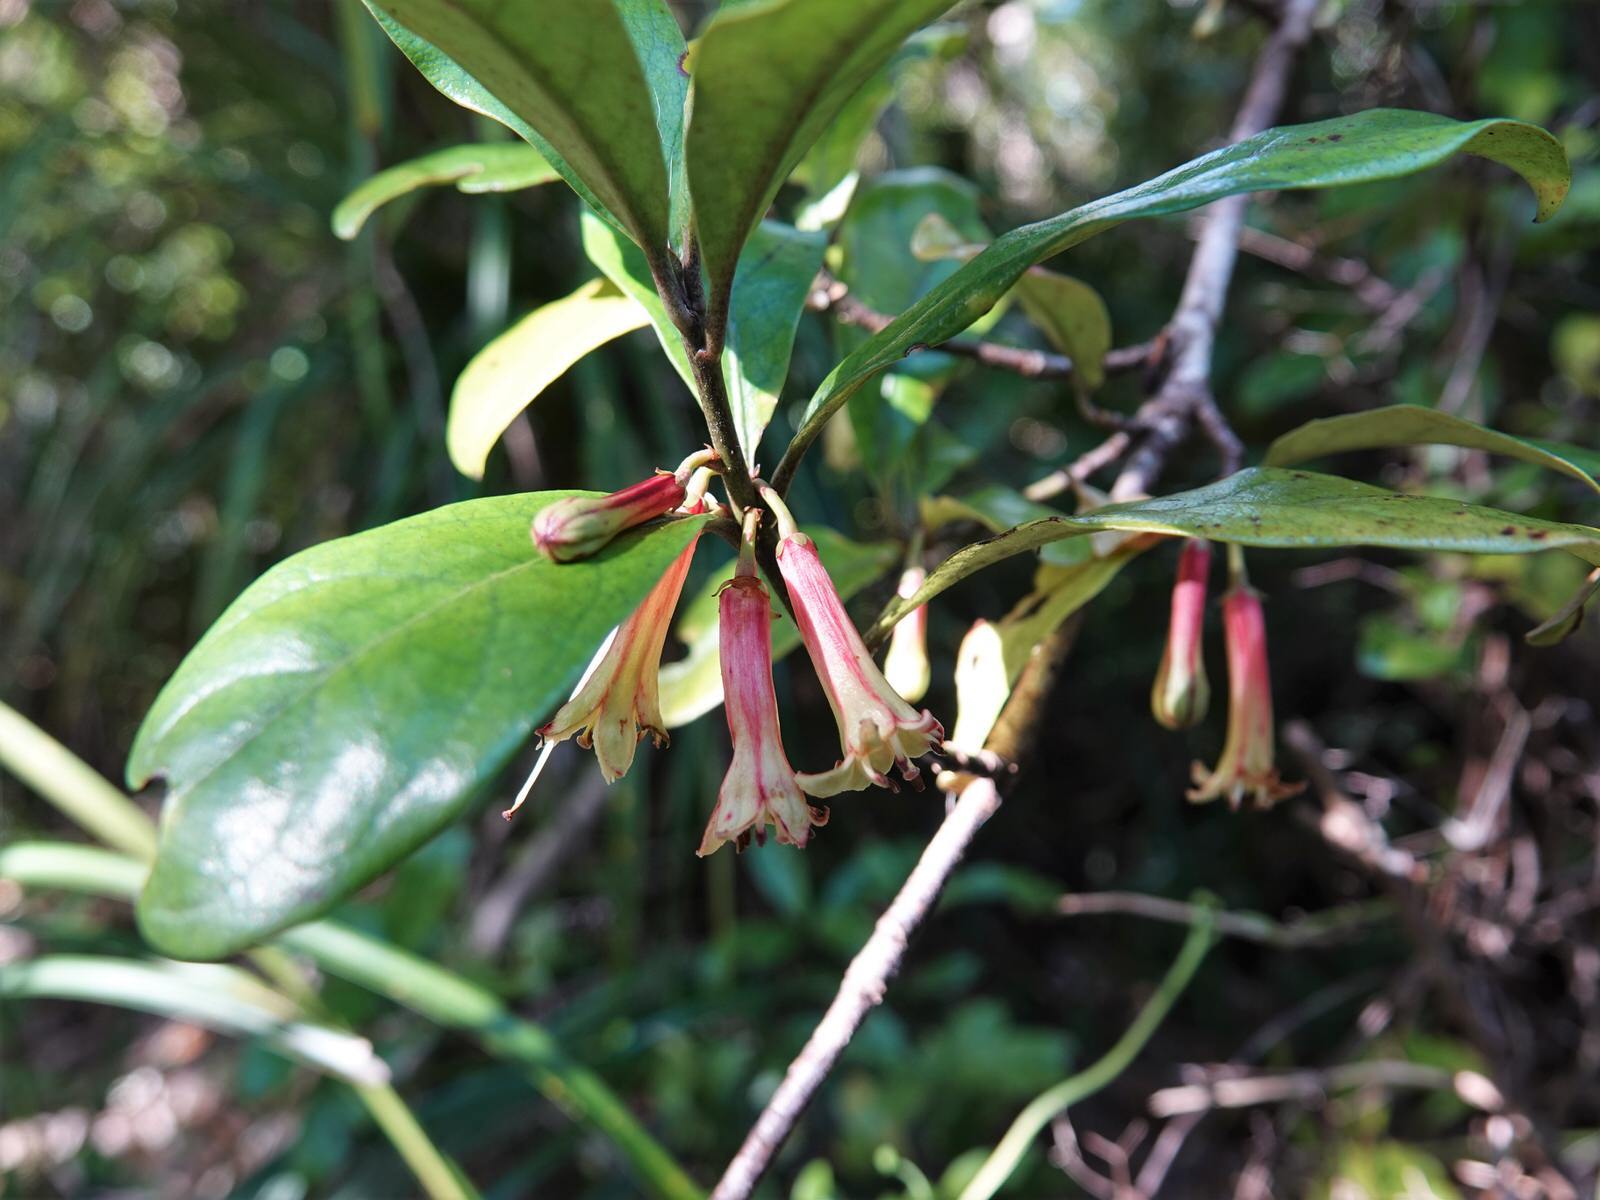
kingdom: Plantae
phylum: Tracheophyta
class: Magnoliopsida
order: Asterales
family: Alseuosmiaceae
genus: Alseuosmia
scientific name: Alseuosmia macrophylla
